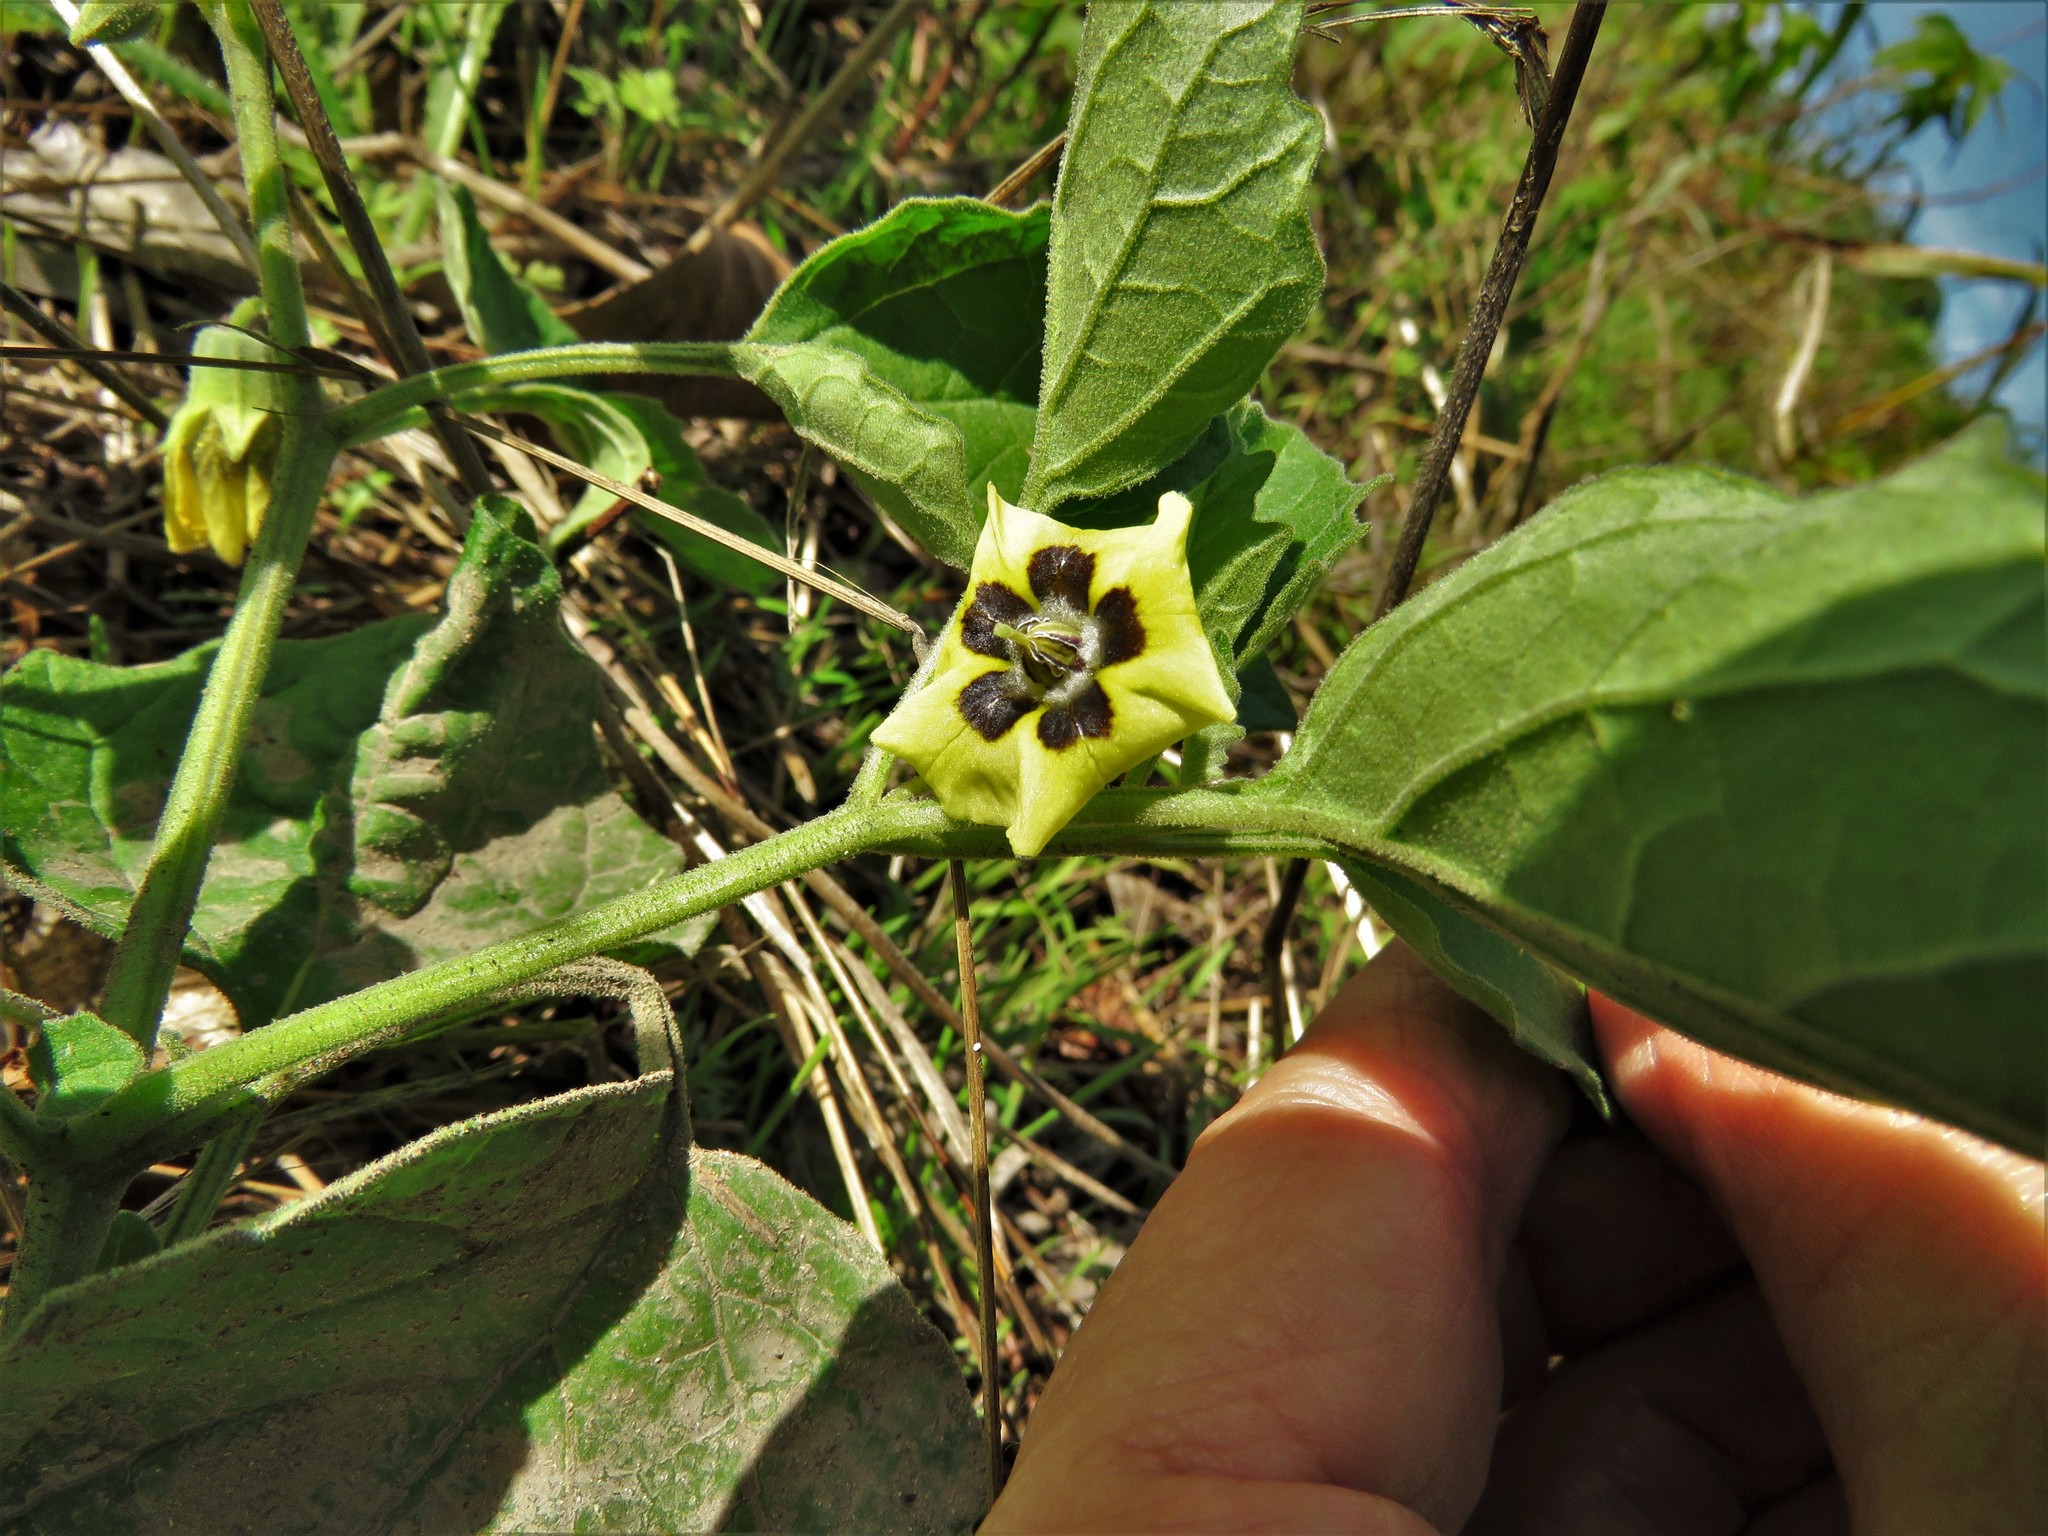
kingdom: Plantae
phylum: Tracheophyta
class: Magnoliopsida
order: Solanales
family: Solanaceae
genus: Physalis
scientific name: Physalis cinerascens
